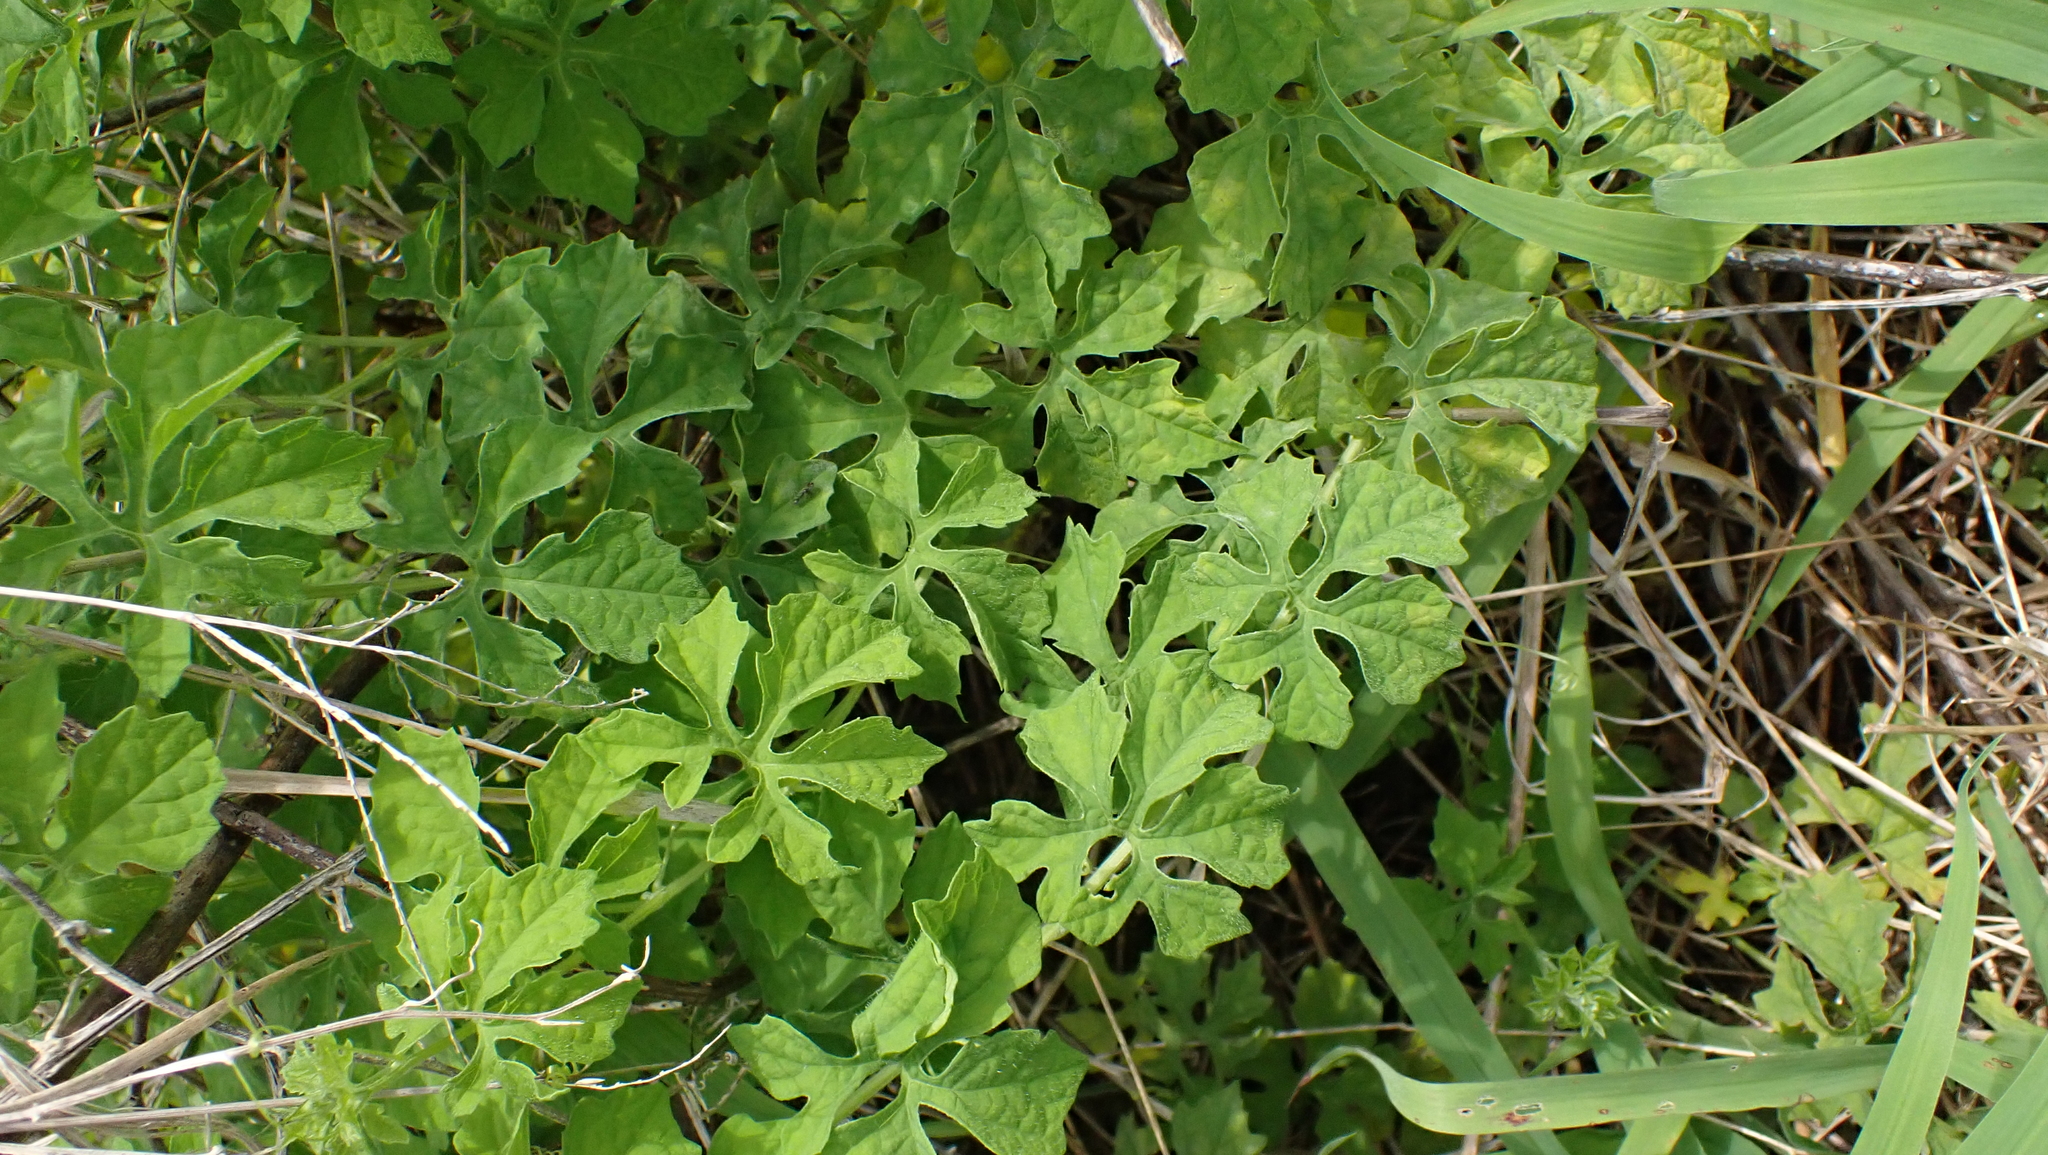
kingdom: Plantae
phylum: Tracheophyta
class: Magnoliopsida
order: Cucurbitales
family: Cucurbitaceae
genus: Momordica
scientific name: Momordica charantia
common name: Balsampear
